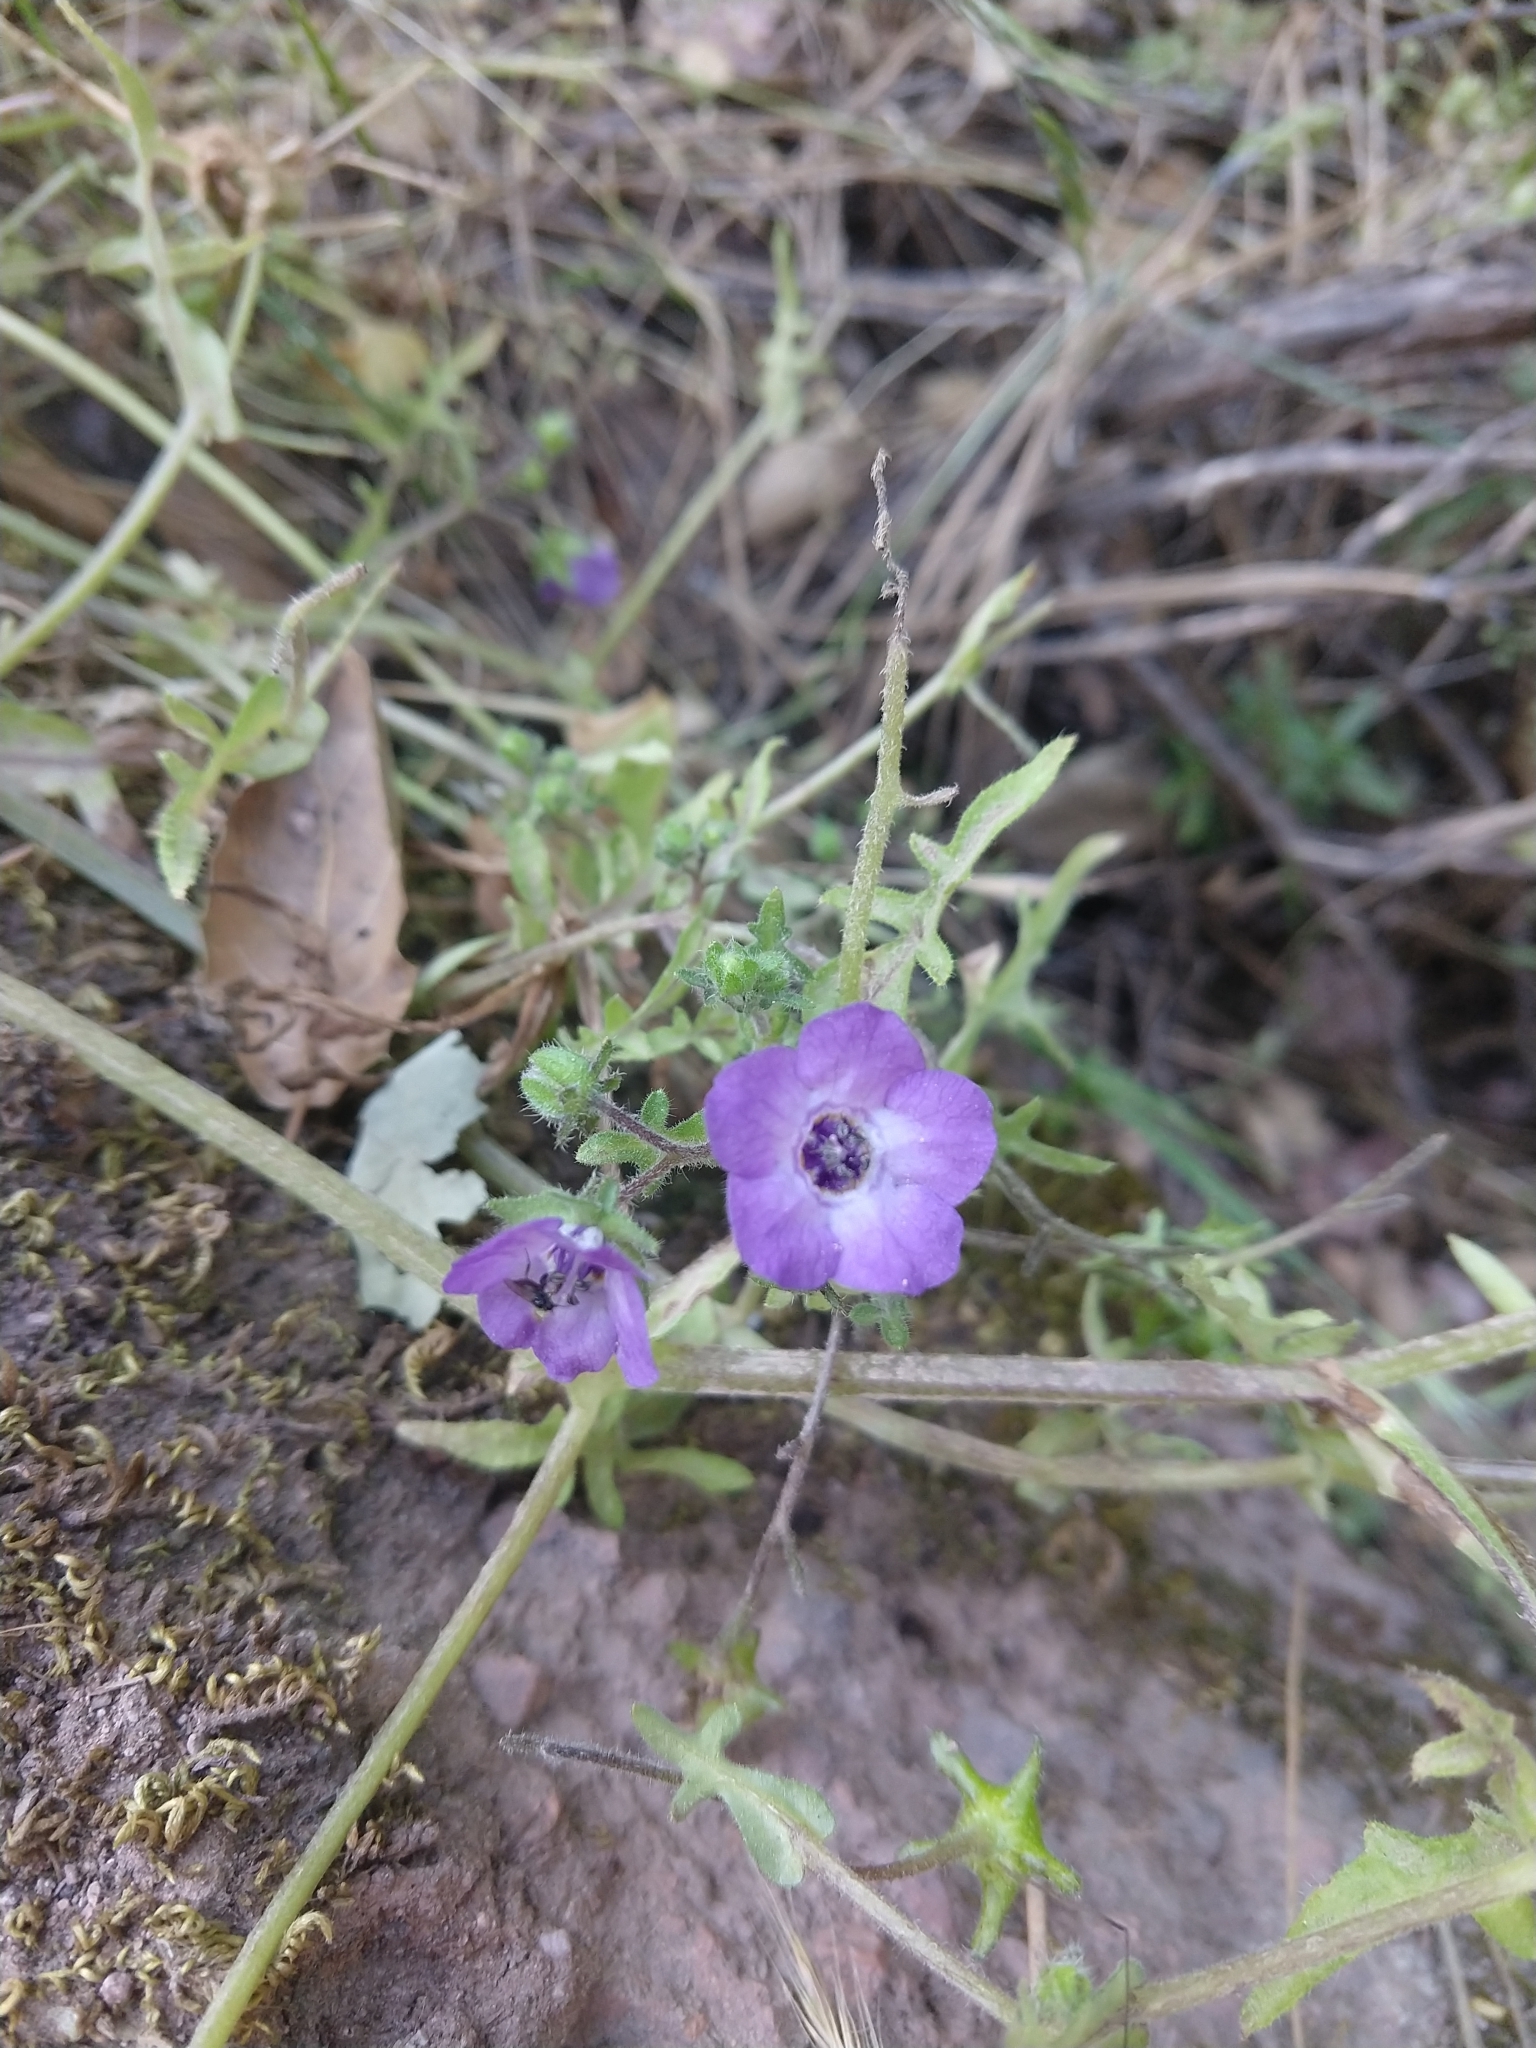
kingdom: Plantae
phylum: Tracheophyta
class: Magnoliopsida
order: Boraginales
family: Hydrophyllaceae
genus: Pholistoma
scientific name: Pholistoma auritum
